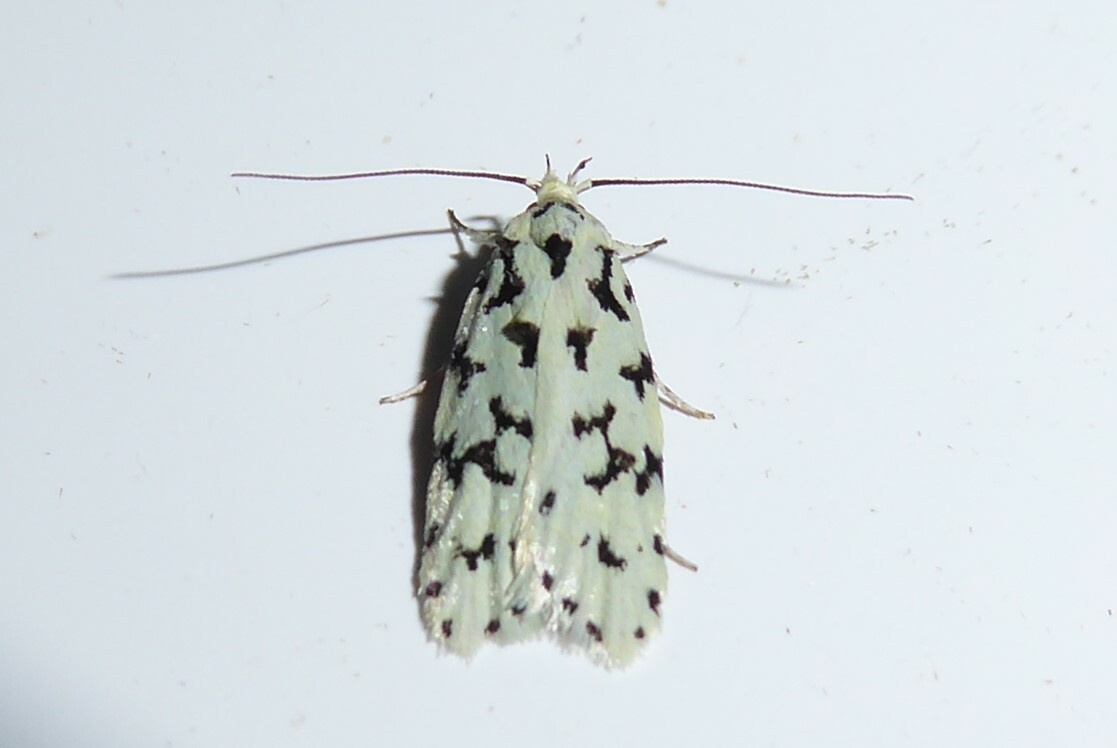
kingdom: Animalia
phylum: Arthropoda
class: Insecta
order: Lepidoptera
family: Oecophoridae
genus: Izatha
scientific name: Izatha huttoni
